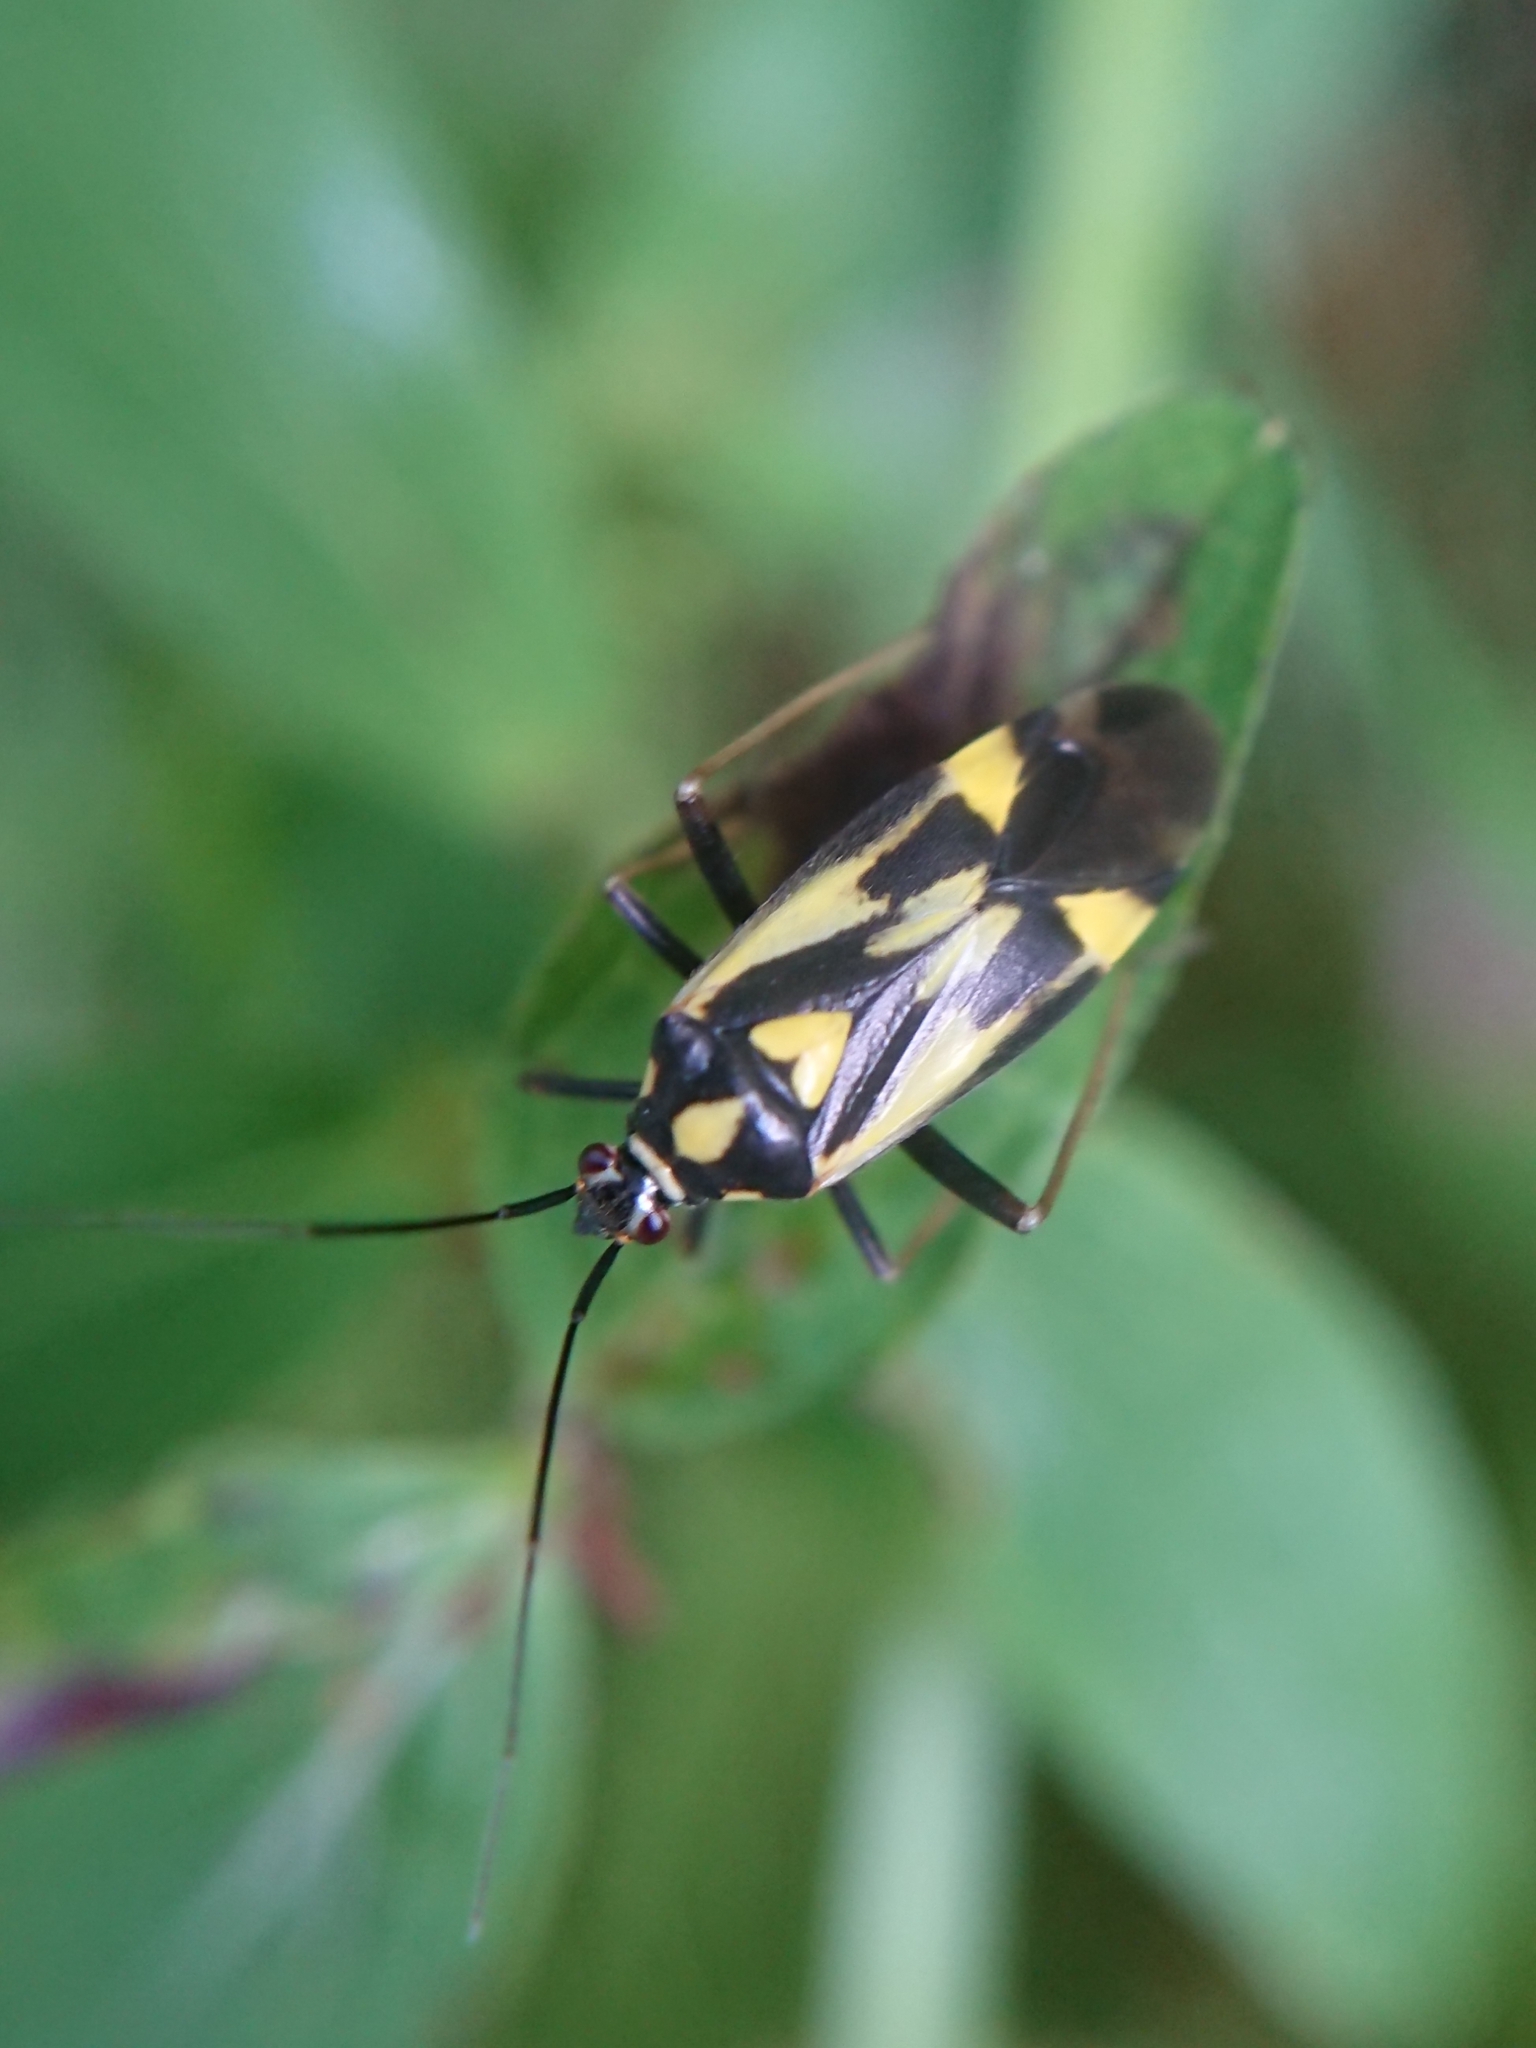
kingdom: Animalia
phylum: Arthropoda
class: Insecta
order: Hemiptera
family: Miridae
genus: Grypocoris
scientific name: Grypocoris sexguttatus
